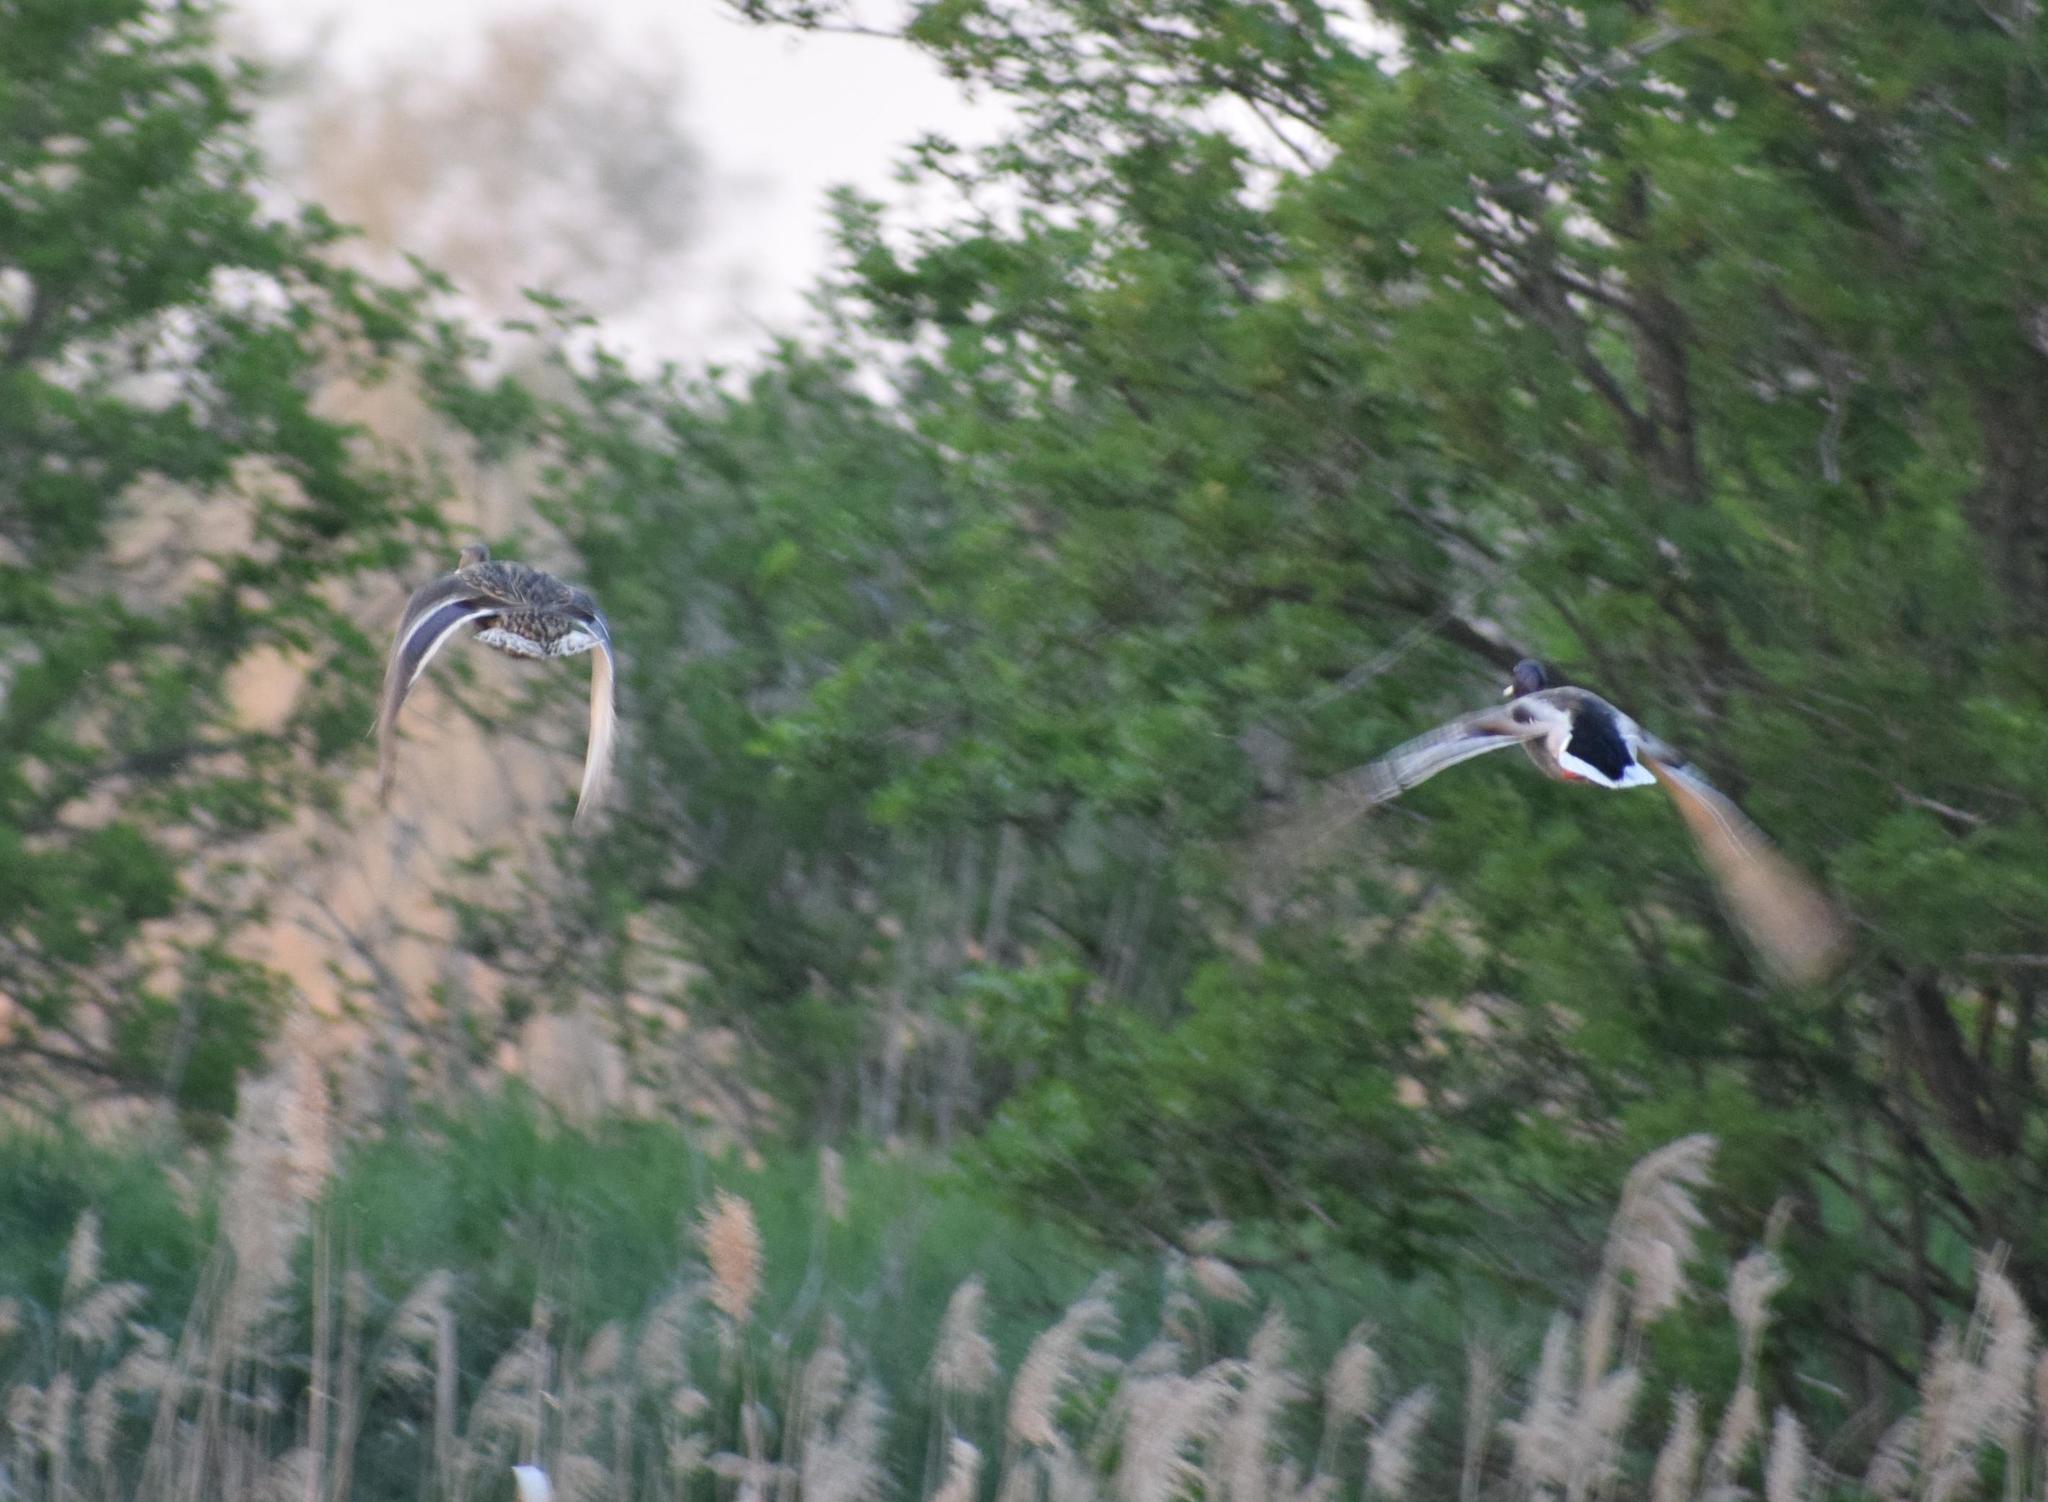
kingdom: Animalia
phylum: Chordata
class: Aves
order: Anseriformes
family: Anatidae
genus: Anas
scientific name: Anas platyrhynchos
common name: Mallard
